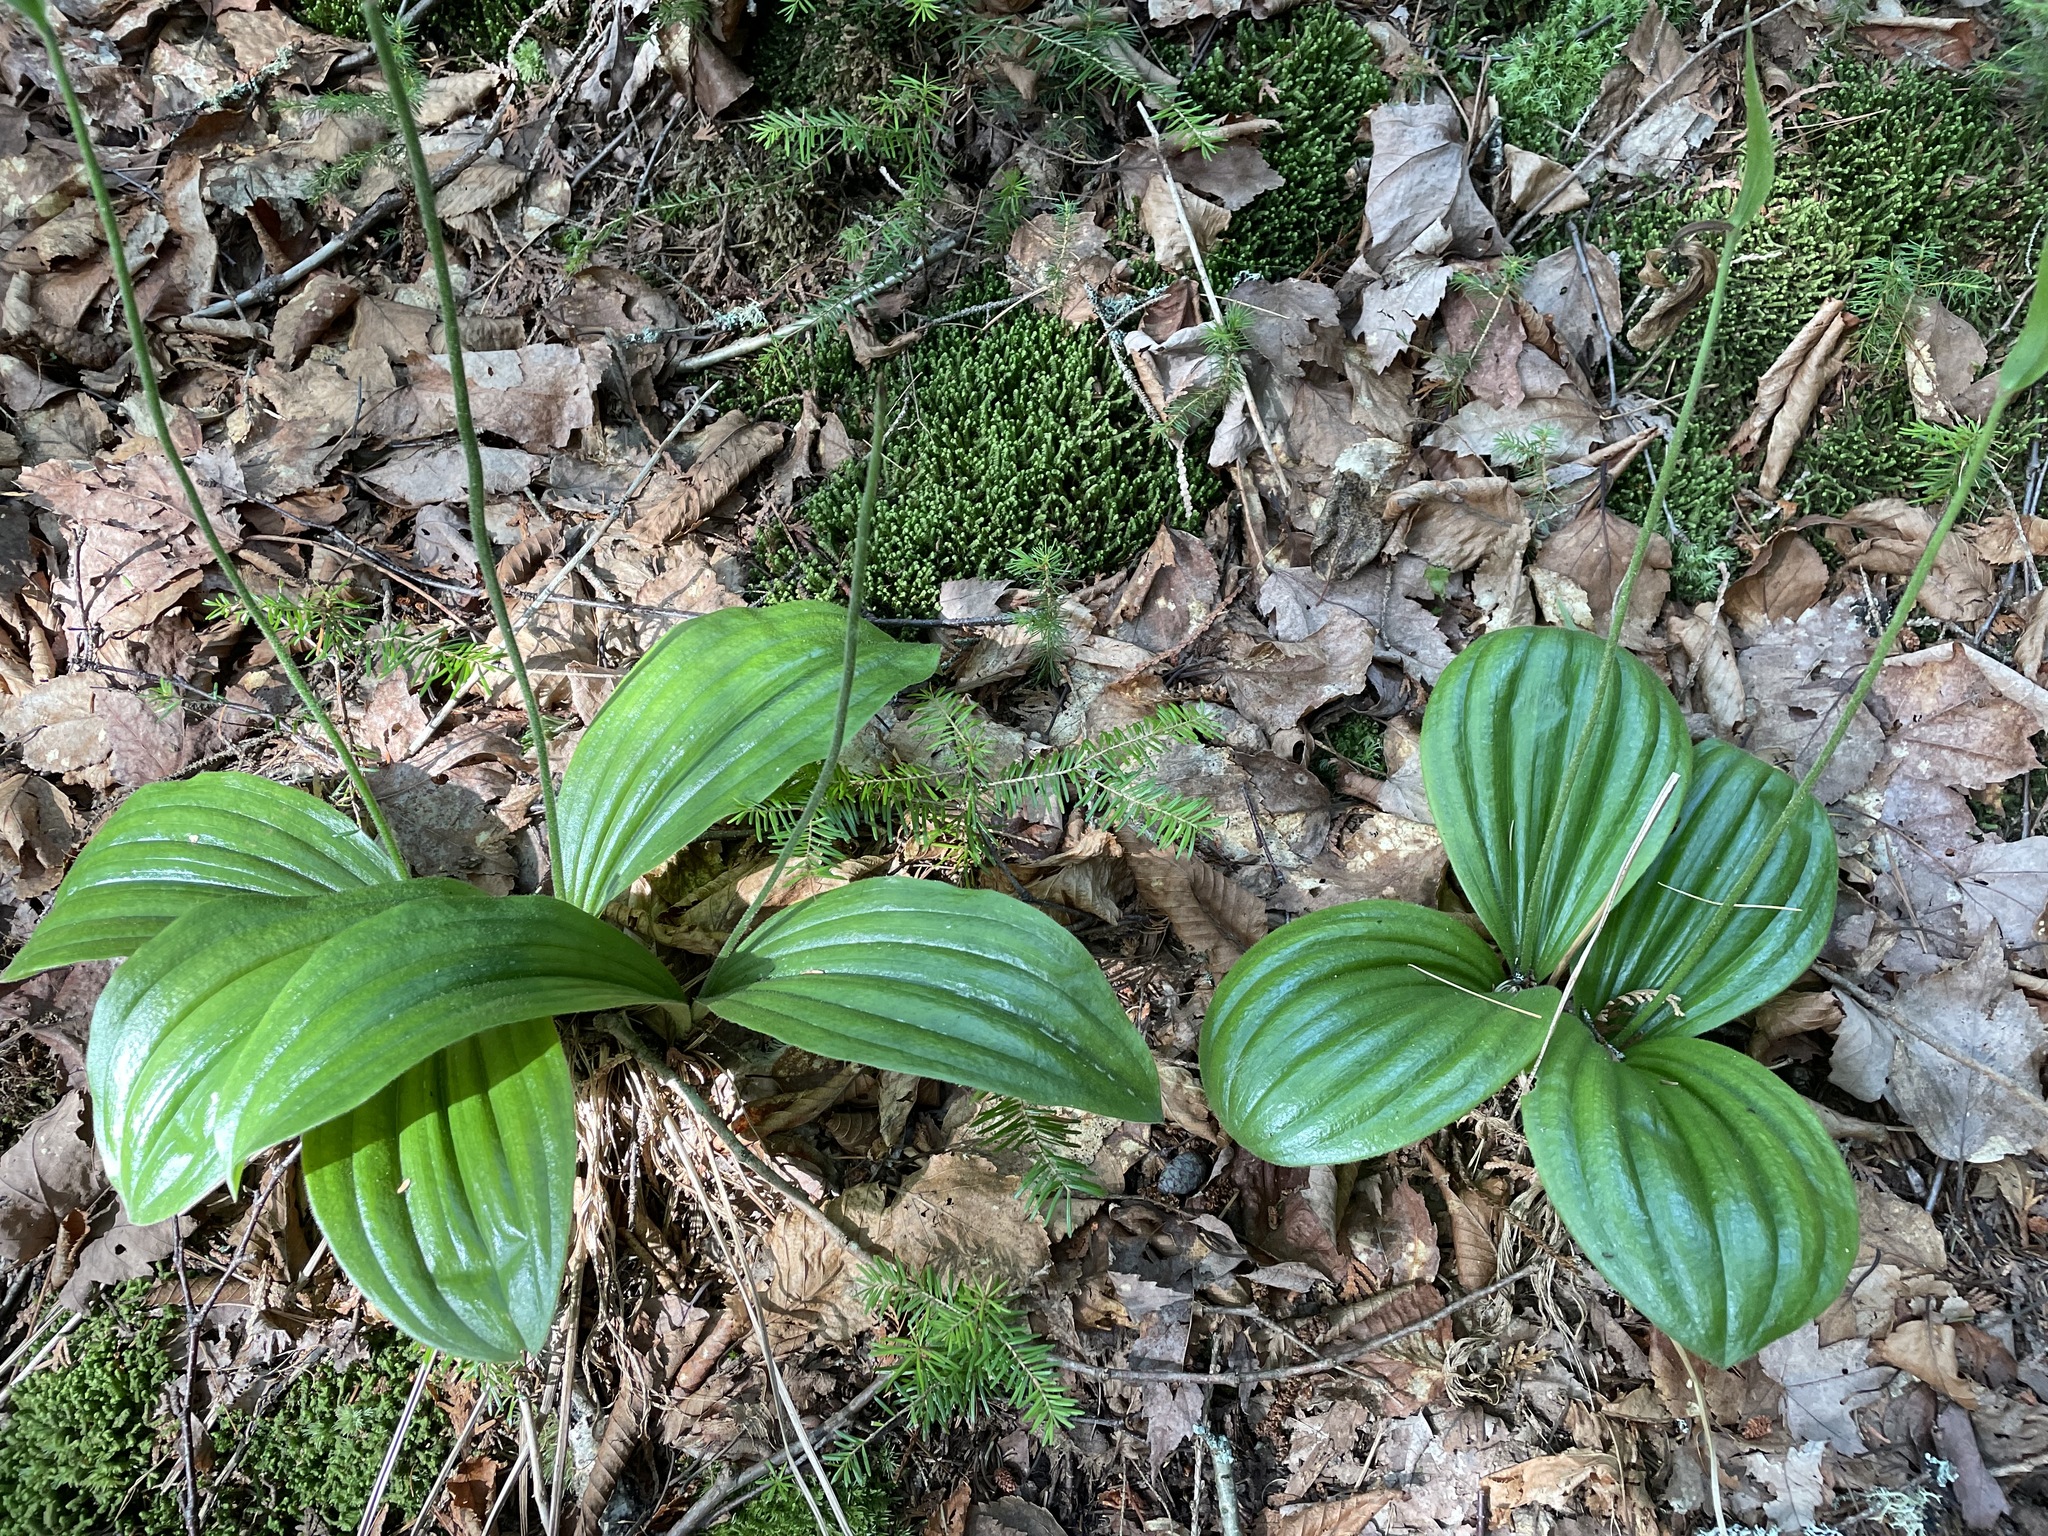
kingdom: Plantae
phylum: Tracheophyta
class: Liliopsida
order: Asparagales
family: Orchidaceae
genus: Cypripedium
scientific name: Cypripedium acaule
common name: Pink lady's-slipper
